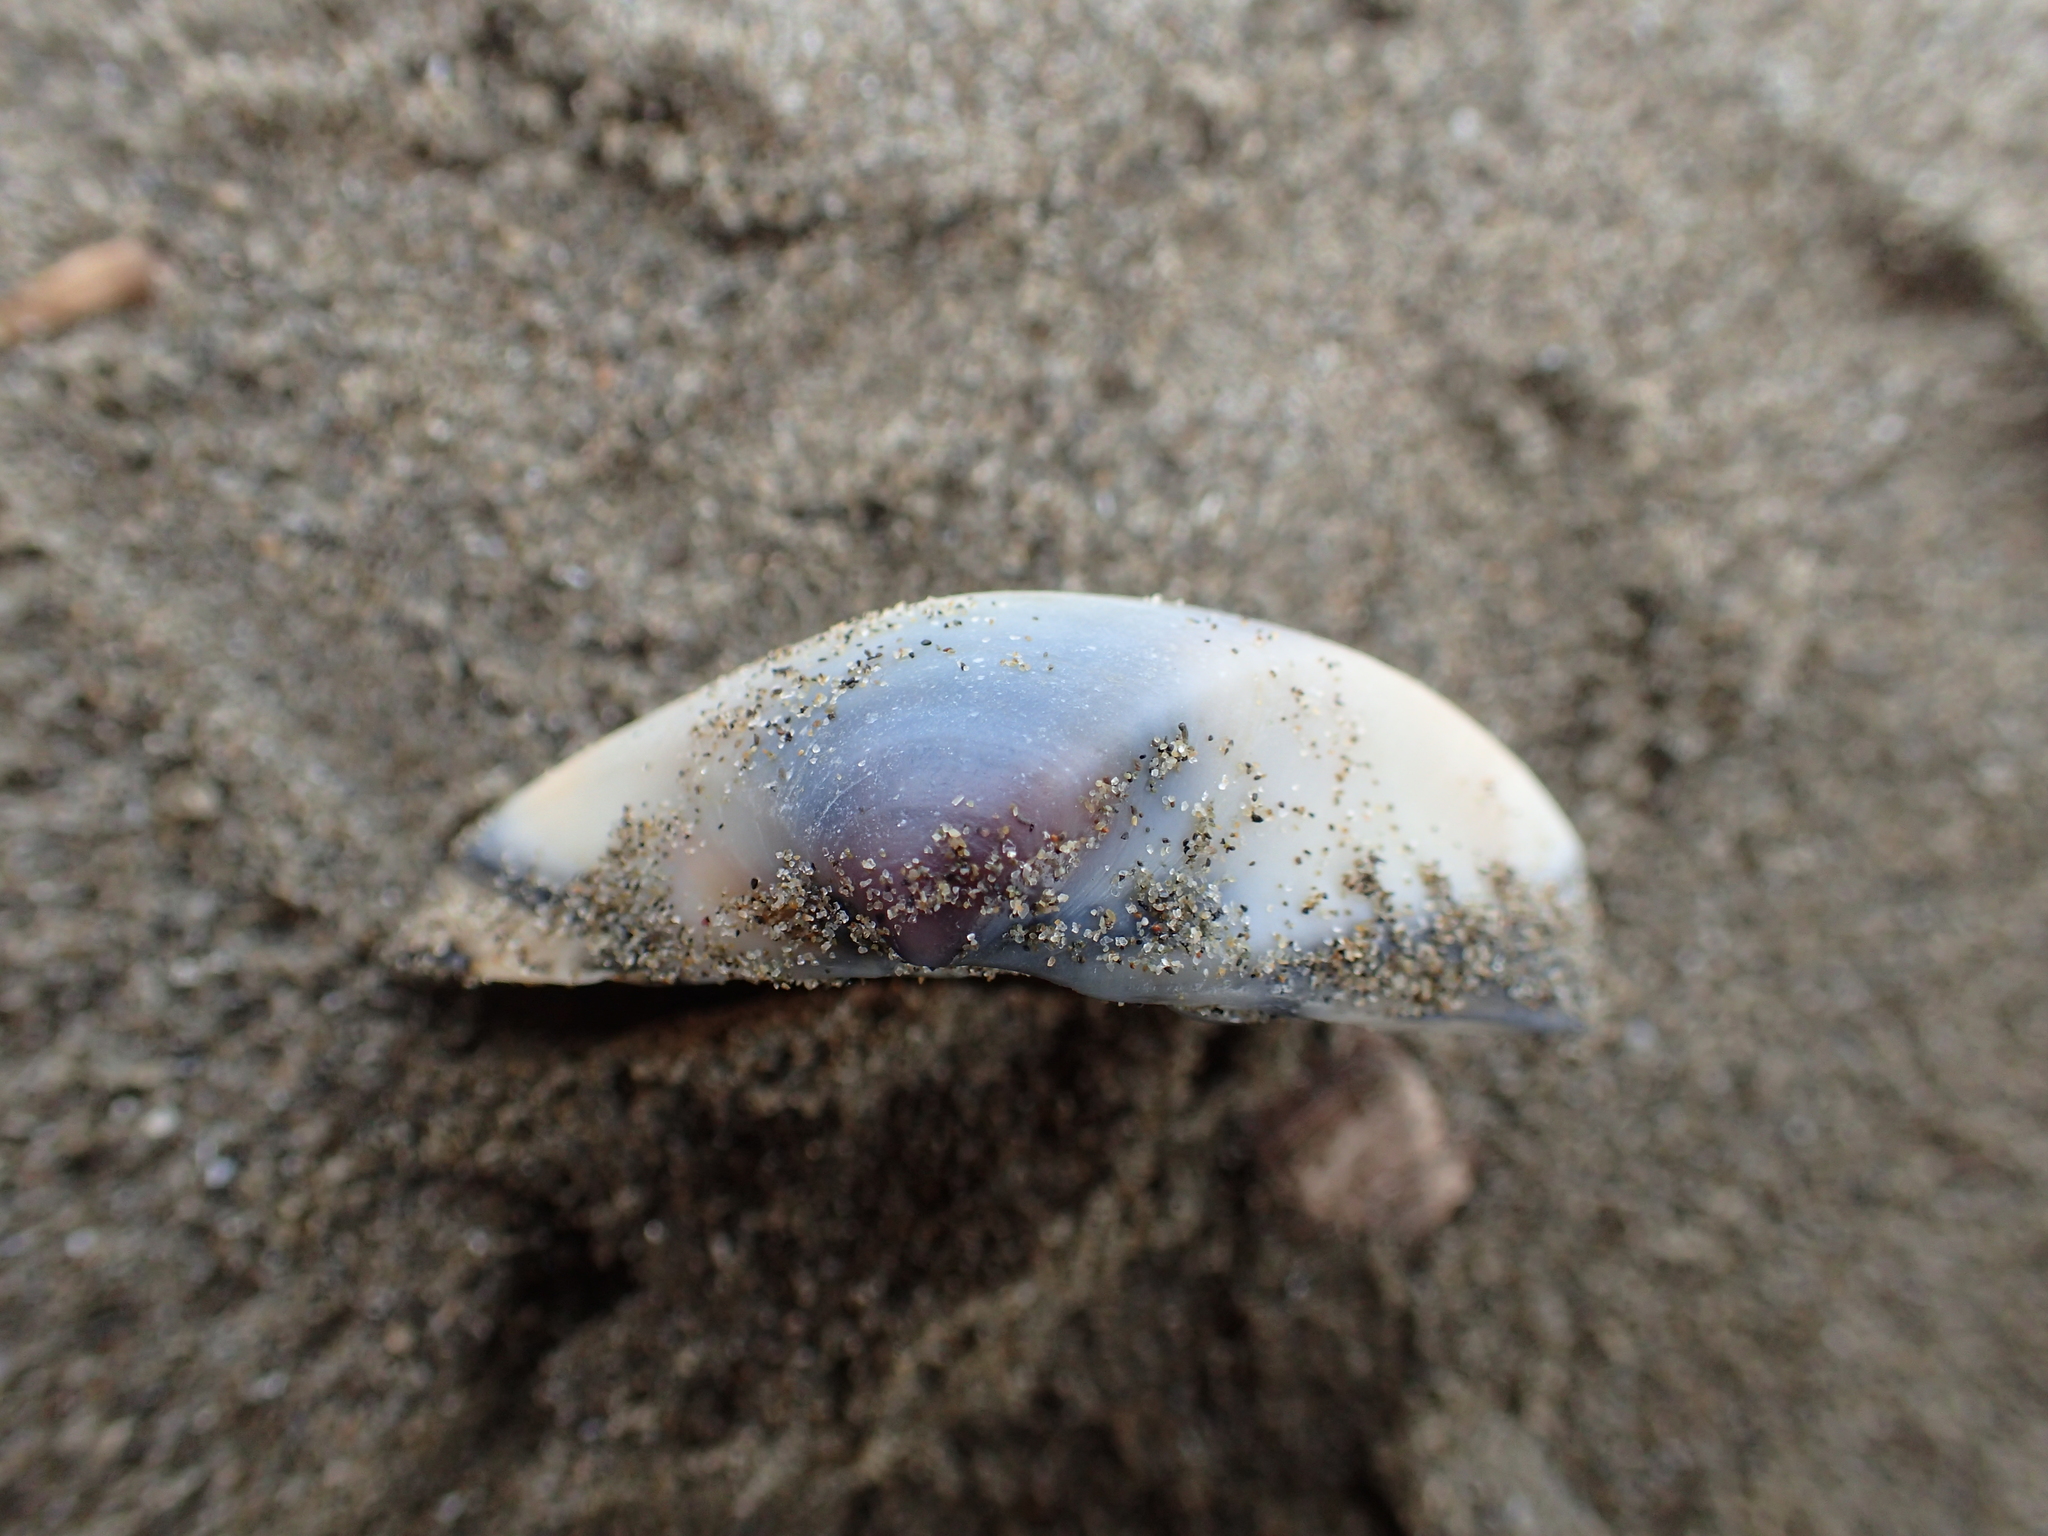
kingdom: Animalia
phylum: Mollusca
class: Bivalvia
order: Venerida
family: Mactridae
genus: Crassula
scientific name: Crassula aequilatera
